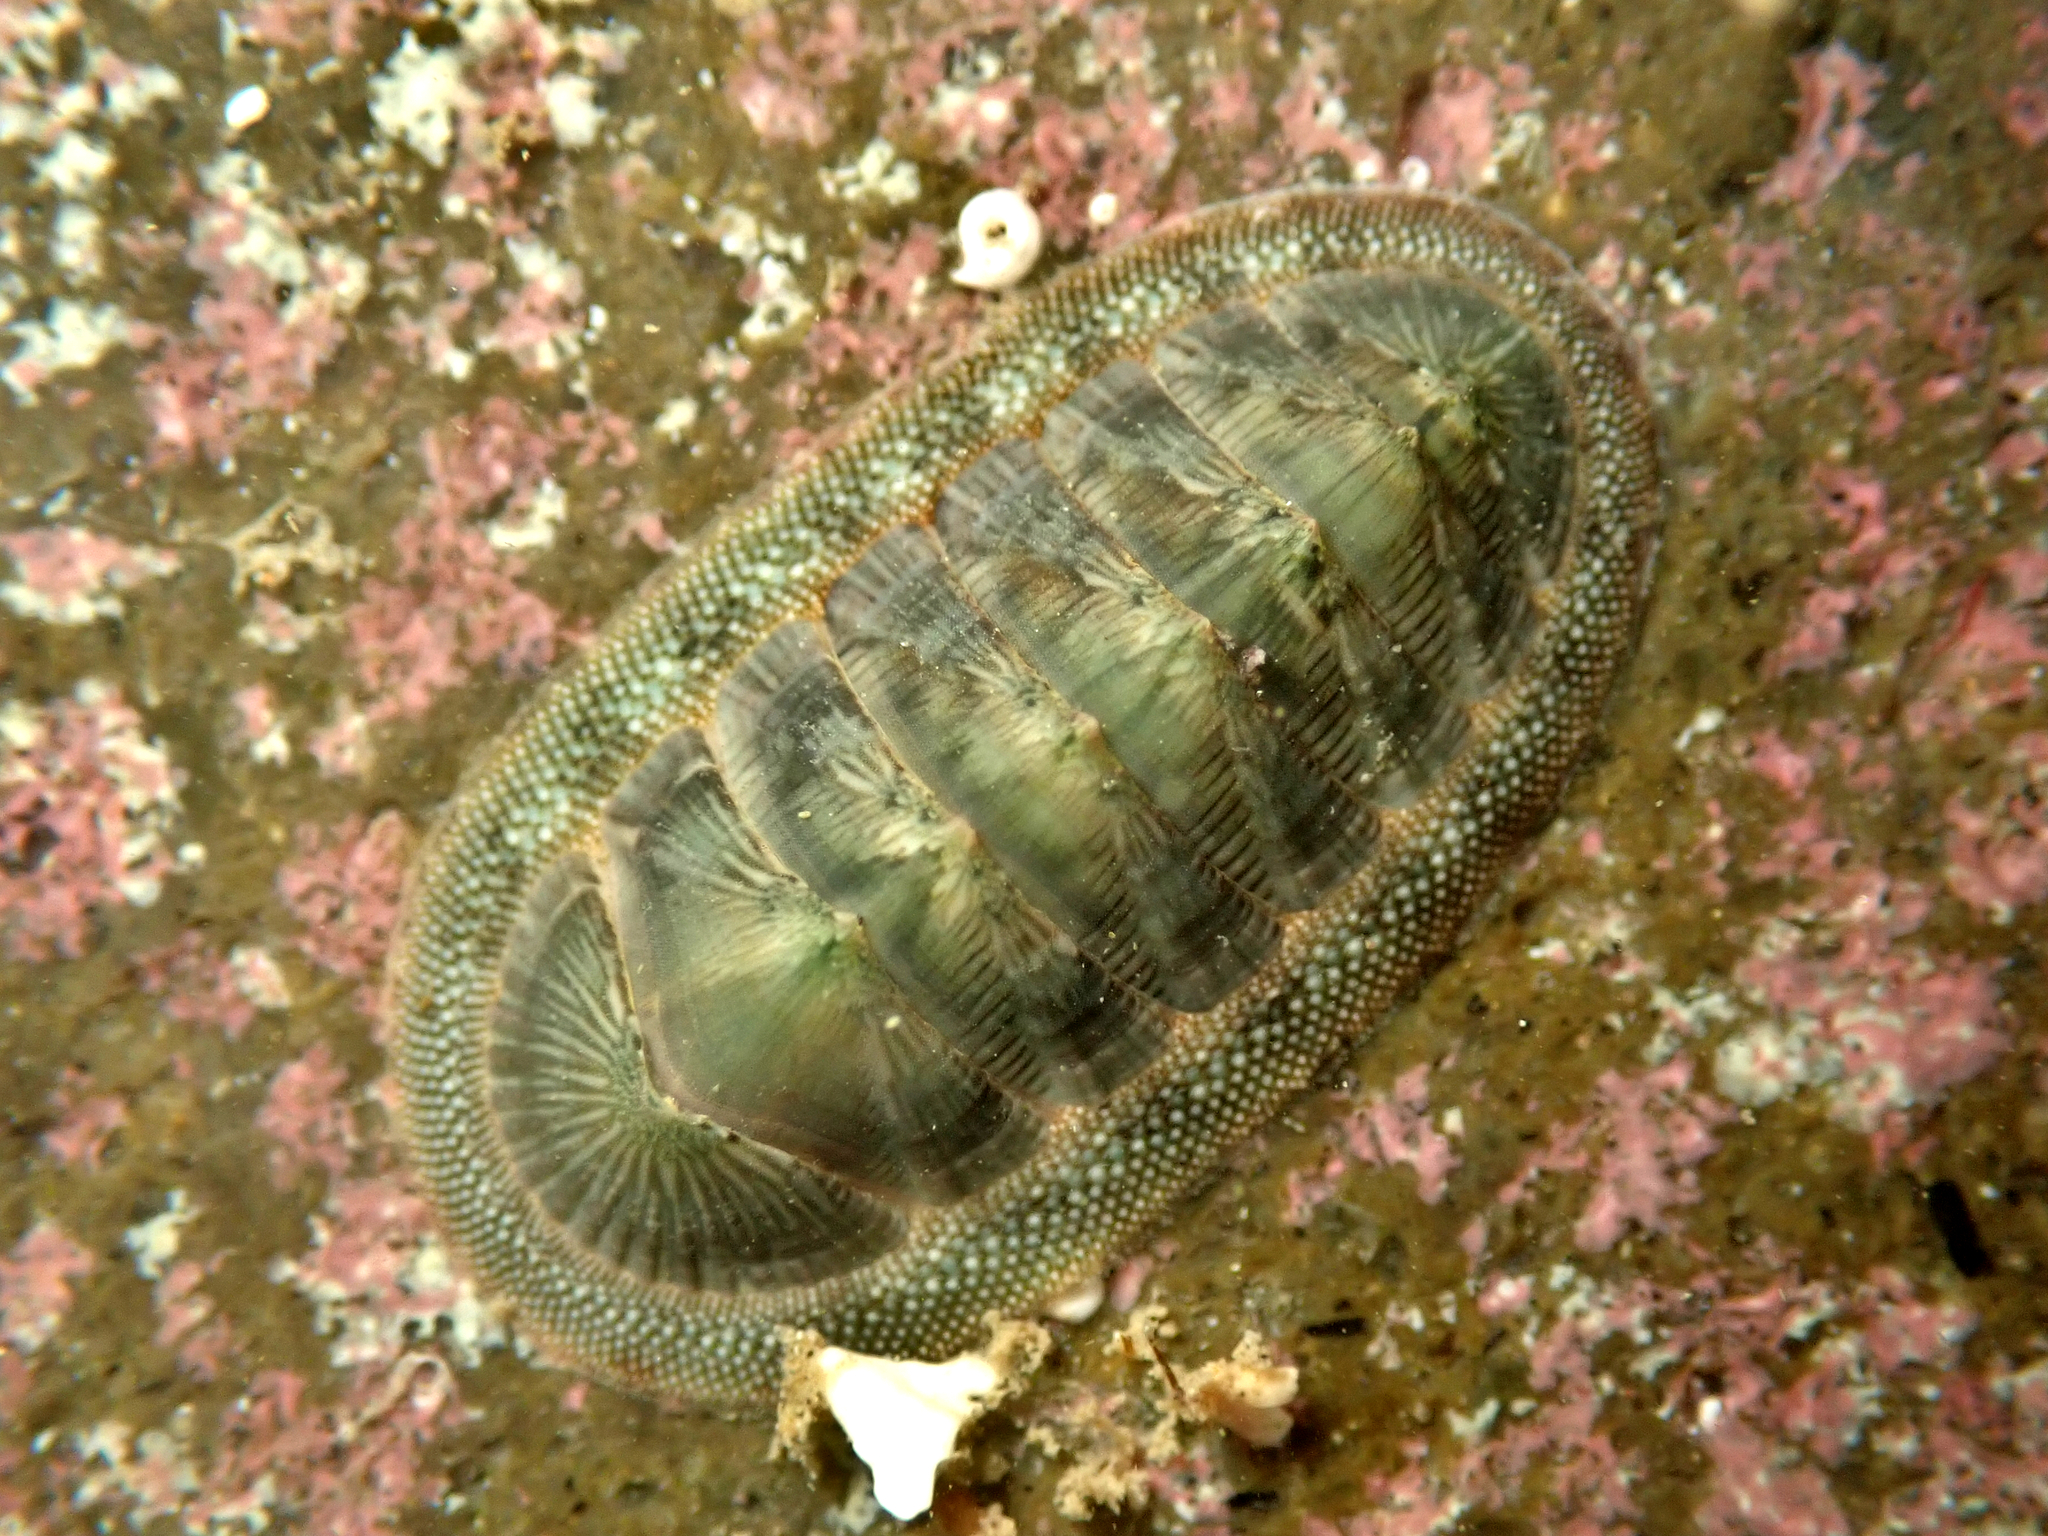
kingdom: Animalia
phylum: Mollusca
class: Polyplacophora
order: Chitonida
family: Chitonidae
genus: Rhyssoplax
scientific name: Rhyssoplax aerea
